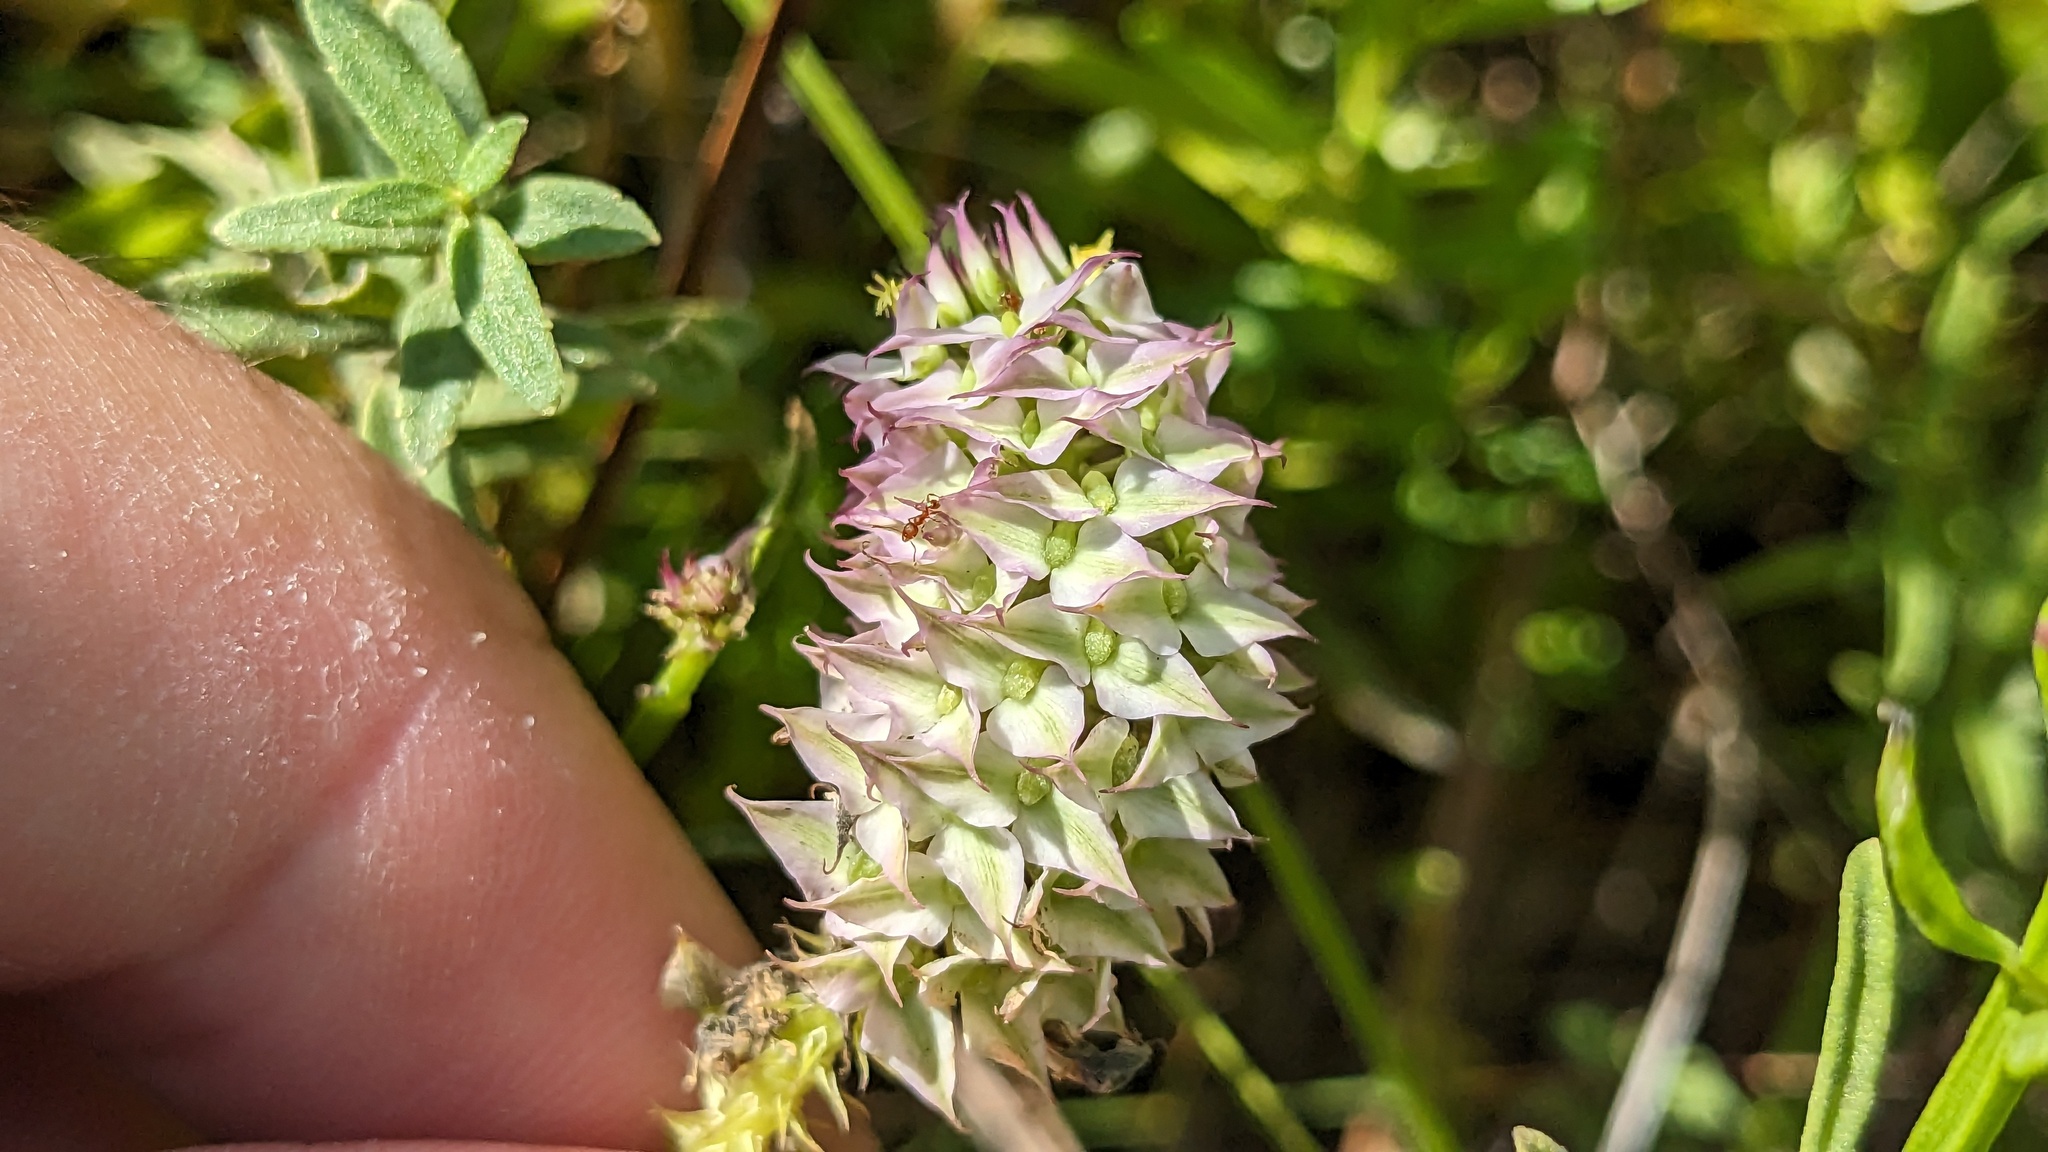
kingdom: Plantae
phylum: Tracheophyta
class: Magnoliopsida
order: Fabales
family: Polygalaceae
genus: Polygala
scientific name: Polygala cruciata
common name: Drumheads
